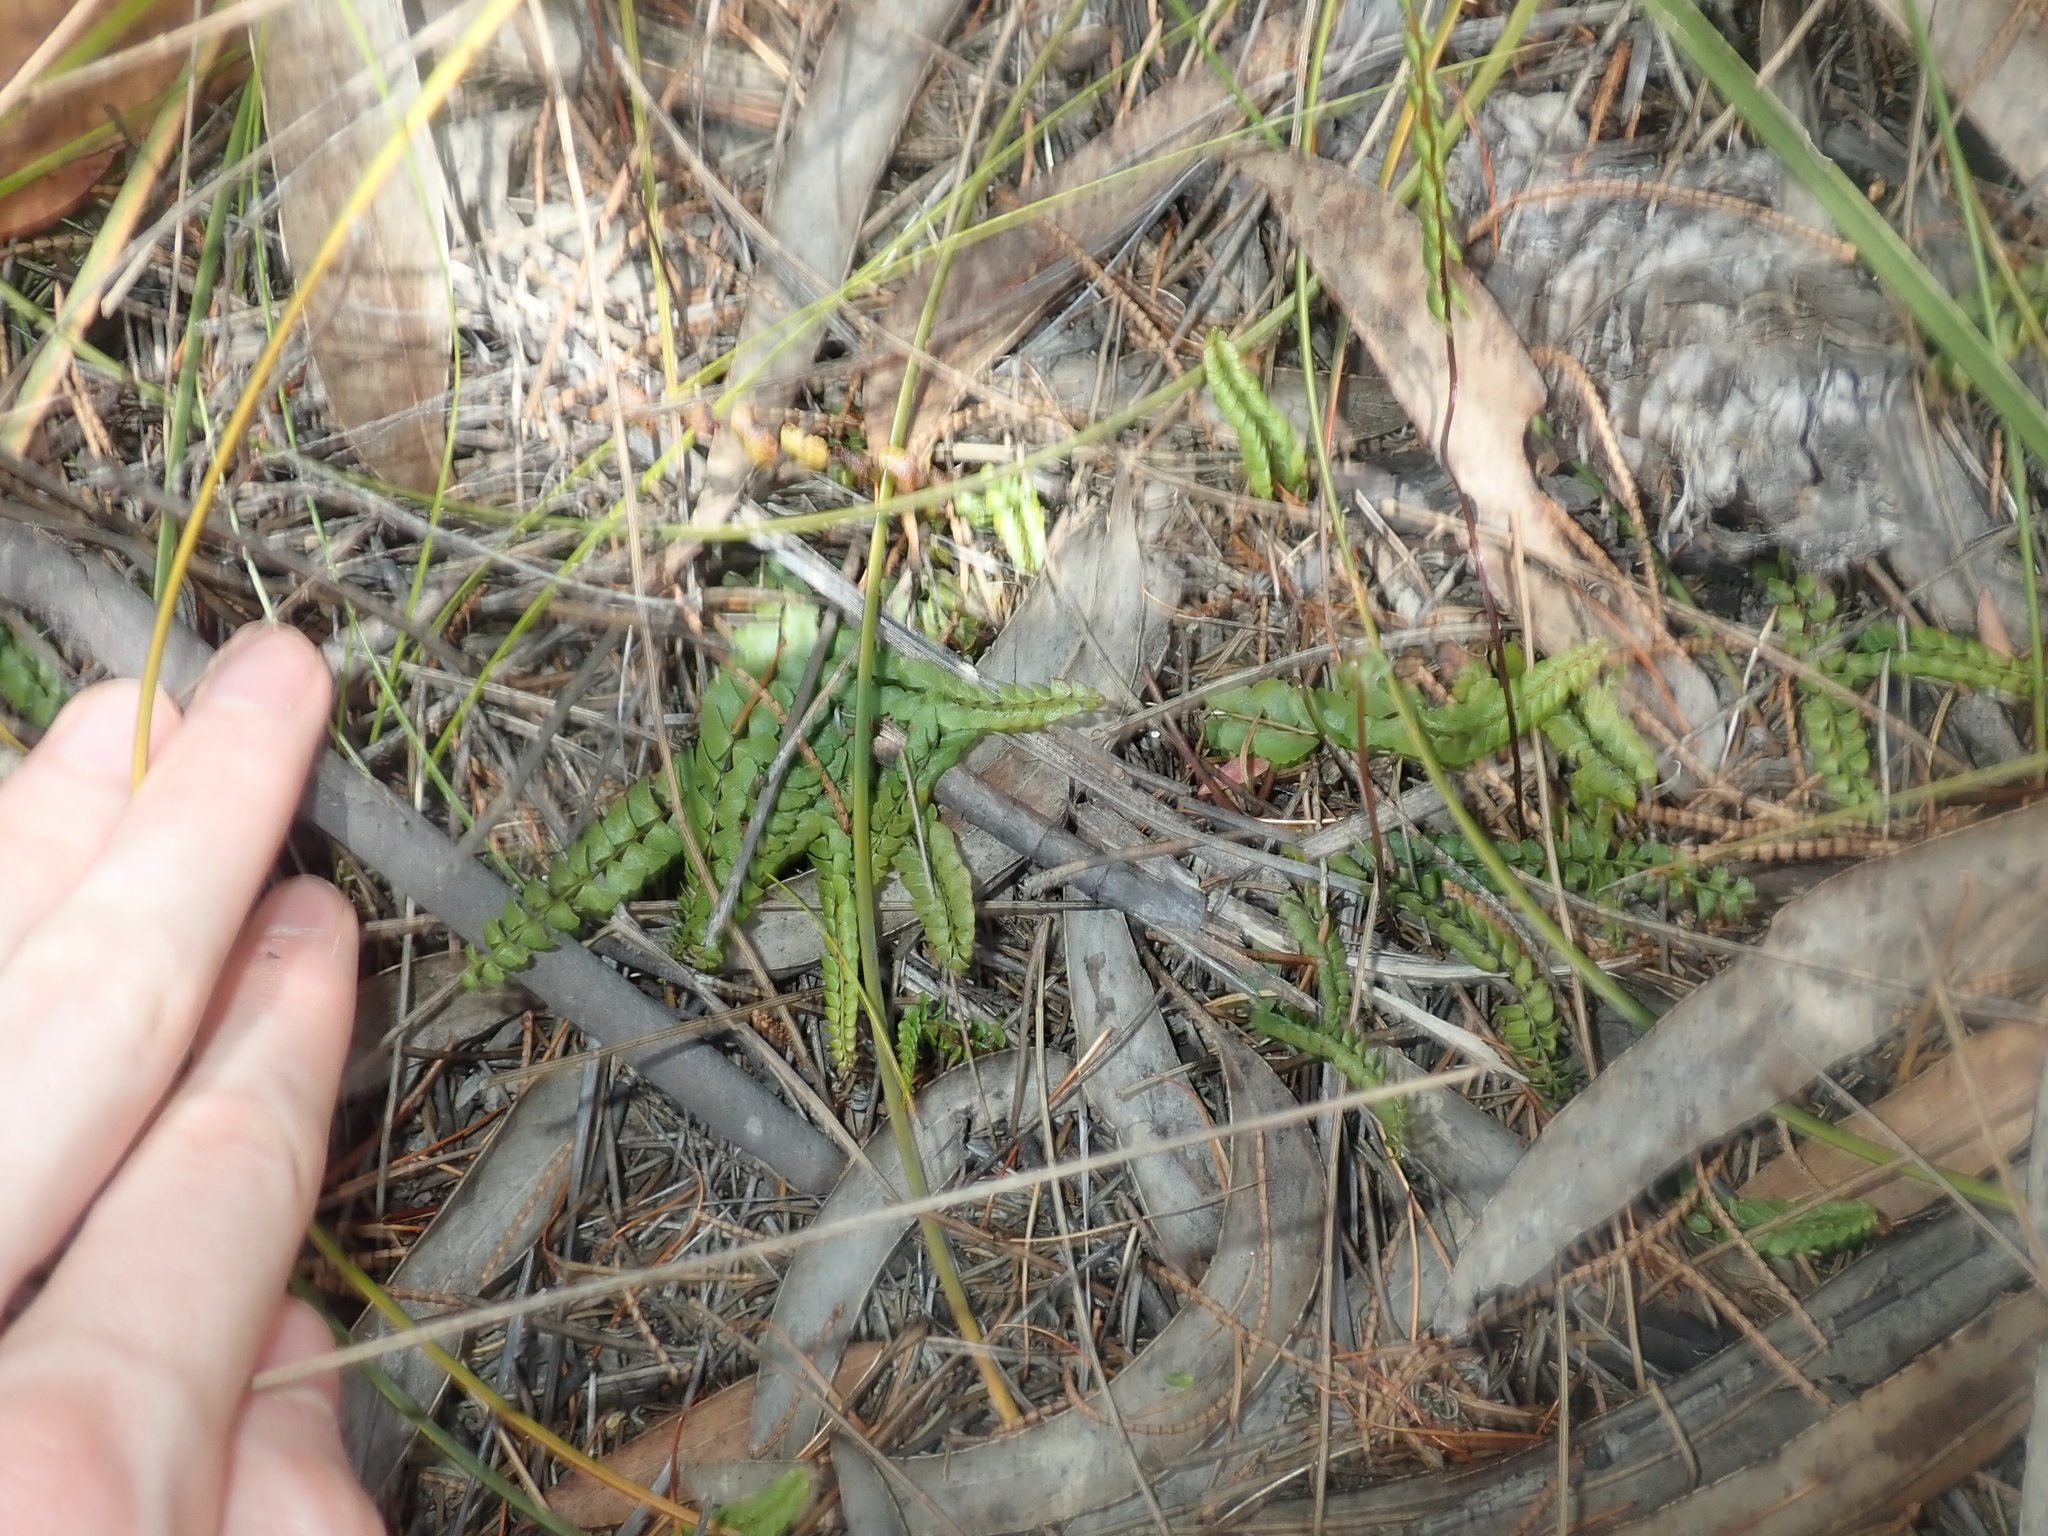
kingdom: Plantae
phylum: Tracheophyta
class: Polypodiopsida
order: Polypodiales
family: Lindsaeaceae
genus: Lindsaea
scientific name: Lindsaea linearis
